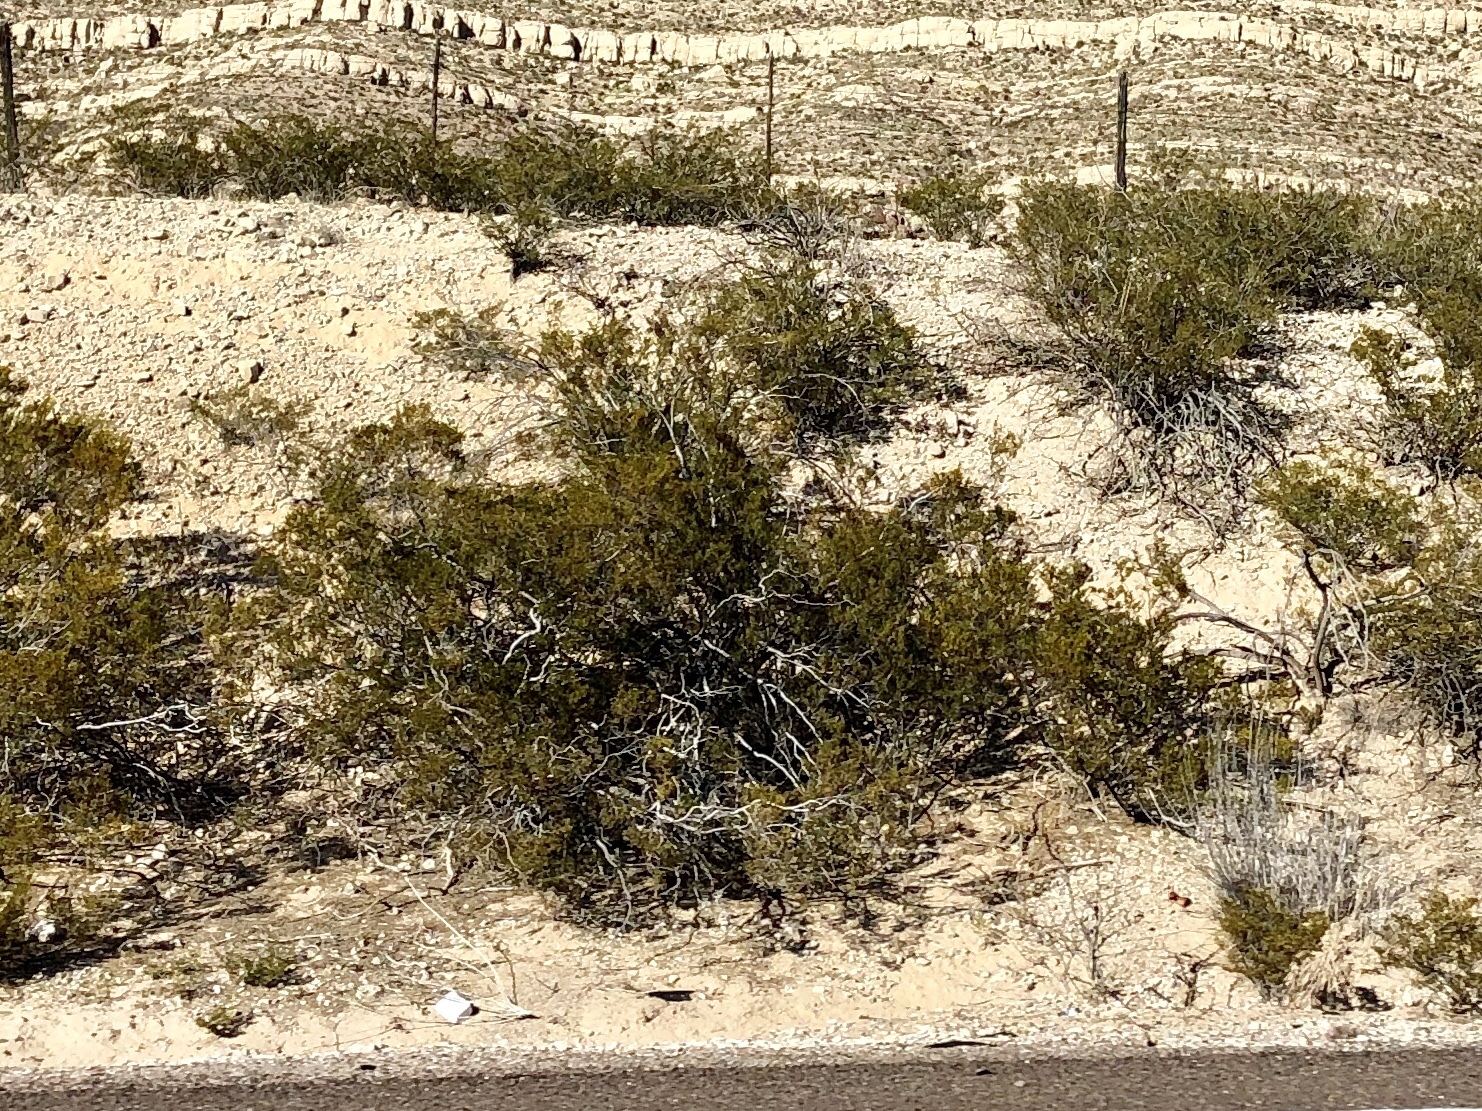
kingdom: Plantae
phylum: Tracheophyta
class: Magnoliopsida
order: Zygophyllales
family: Zygophyllaceae
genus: Larrea
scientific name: Larrea tridentata
